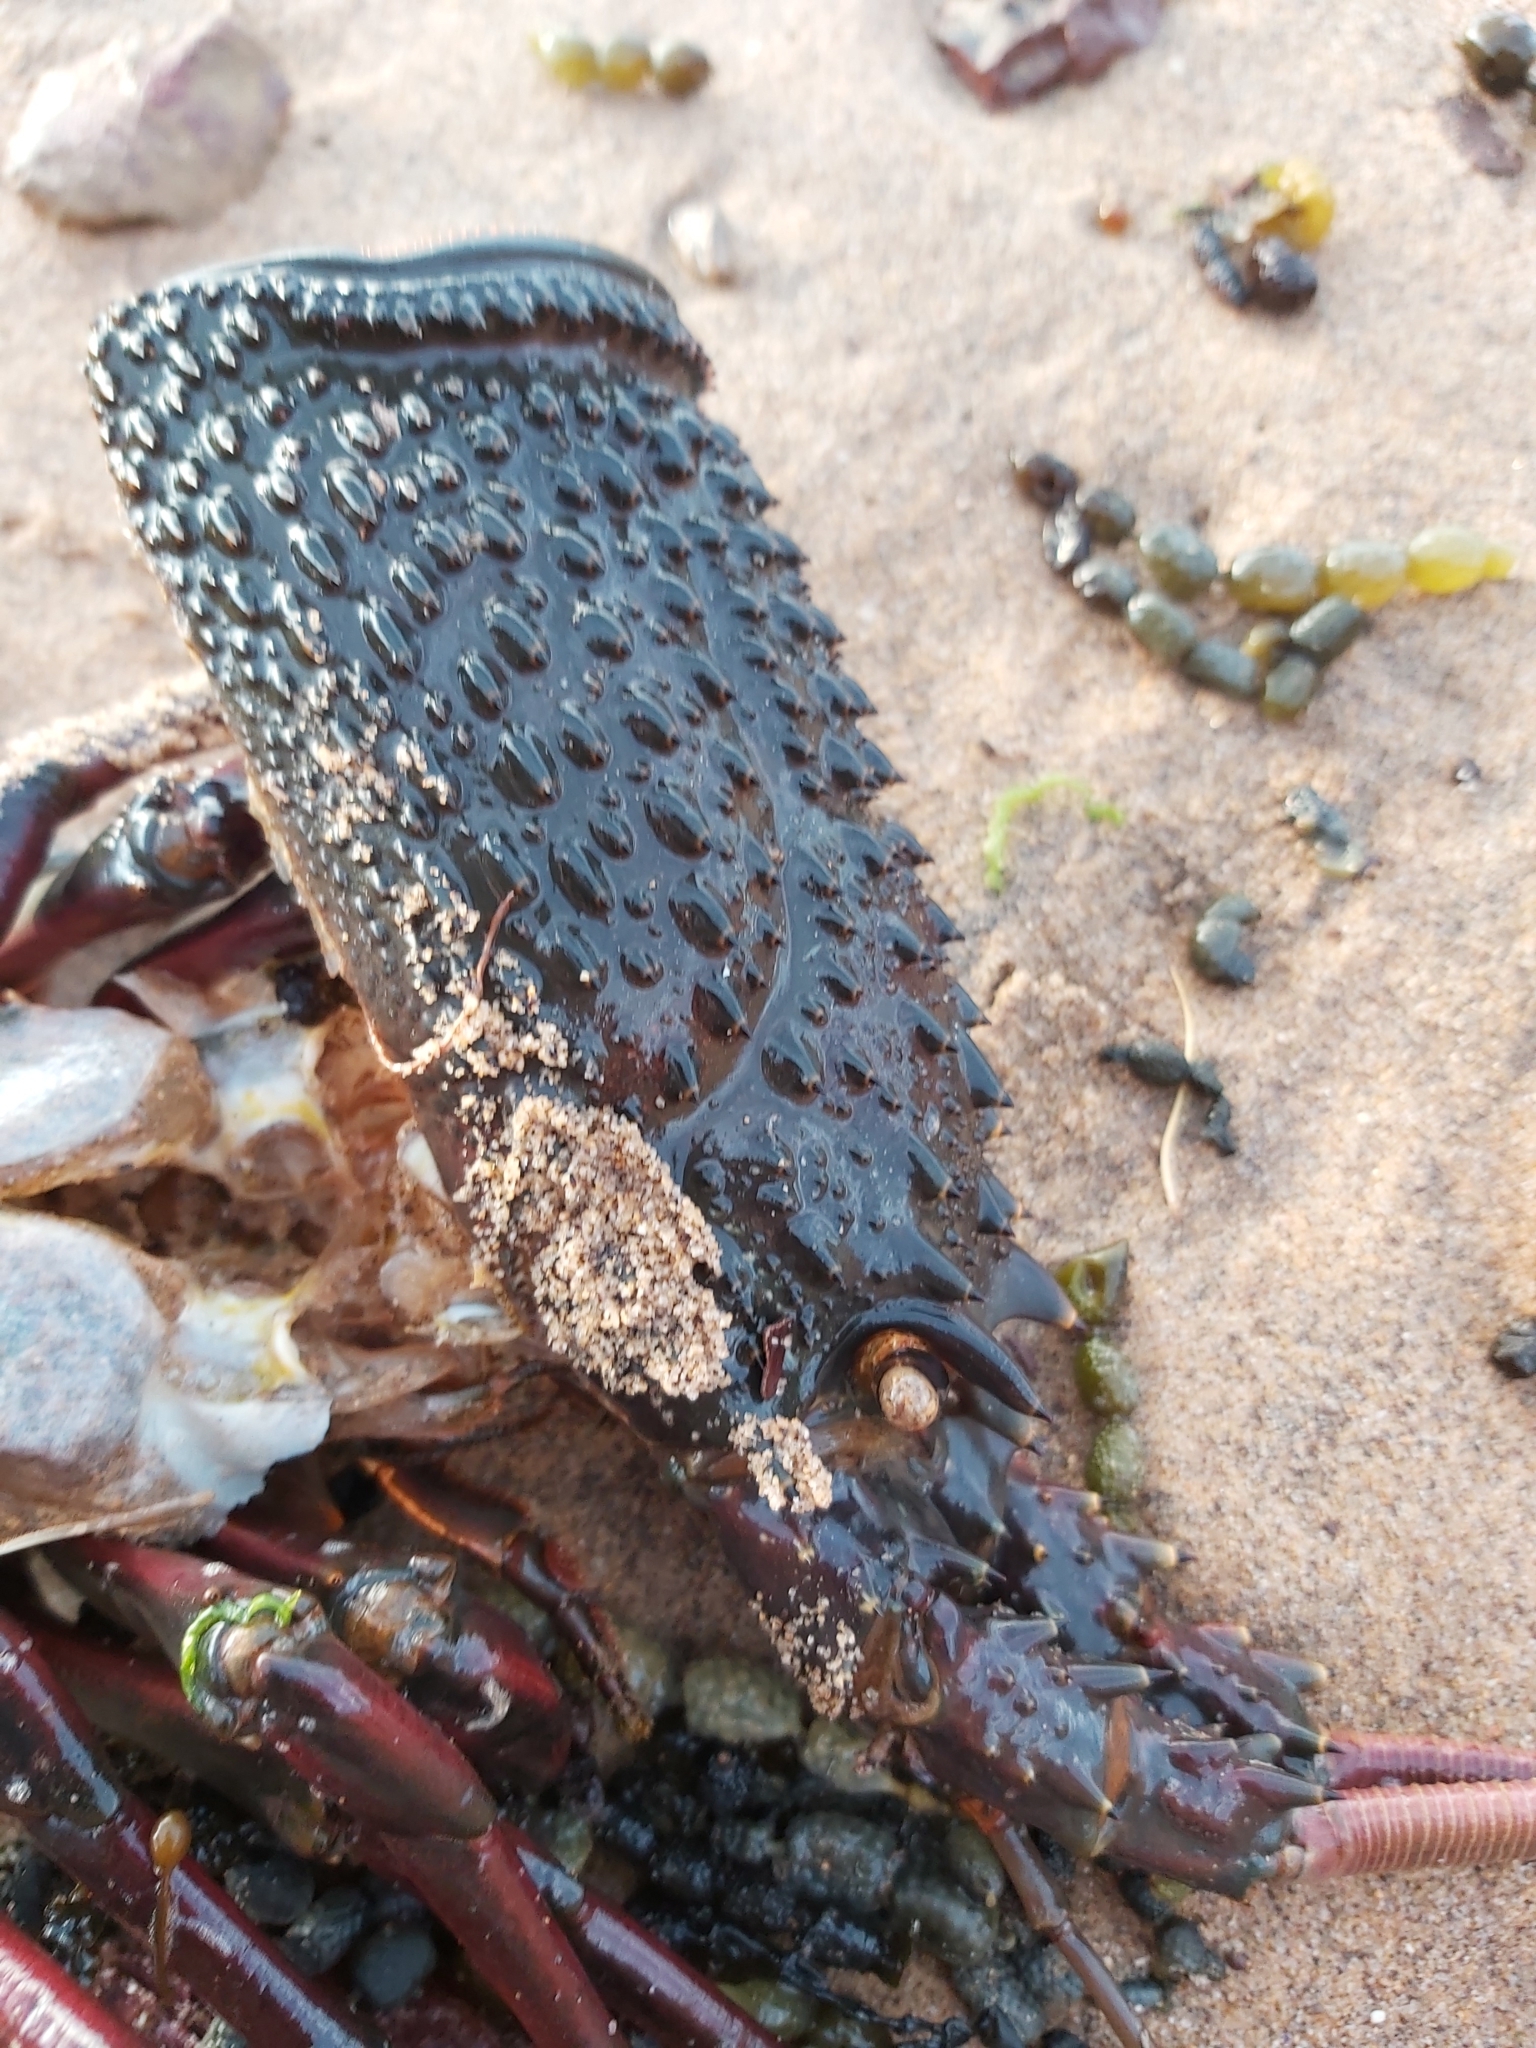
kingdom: Animalia
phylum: Arthropoda
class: Malacostraca
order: Decapoda
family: Palinuridae
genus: Sagmariasus
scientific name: Sagmariasus verreauxi
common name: Green rock lobster
